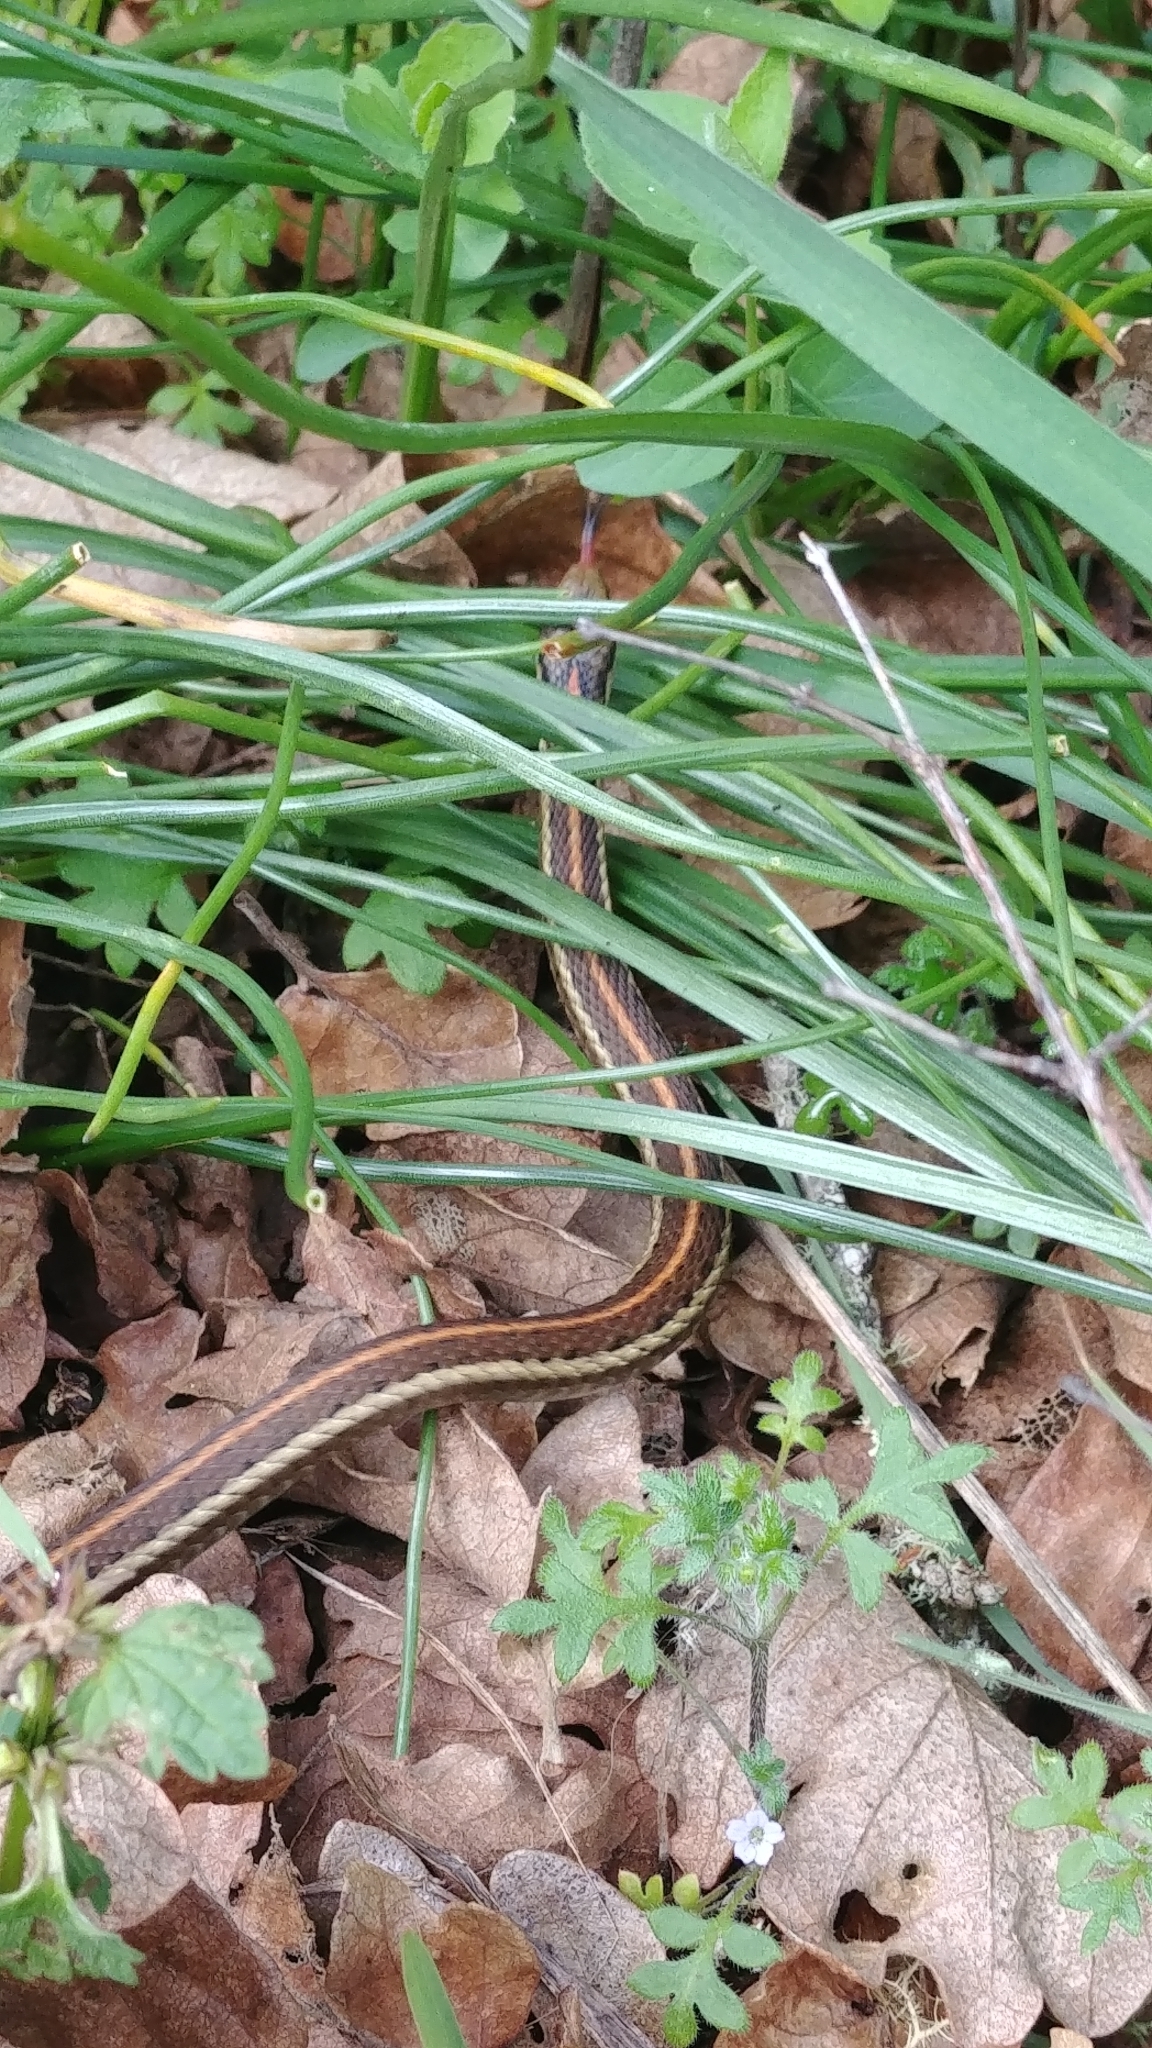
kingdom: Animalia
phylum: Chordata
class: Squamata
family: Colubridae
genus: Thamnophis
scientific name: Thamnophis ordinoides
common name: Northwestern garter snake
